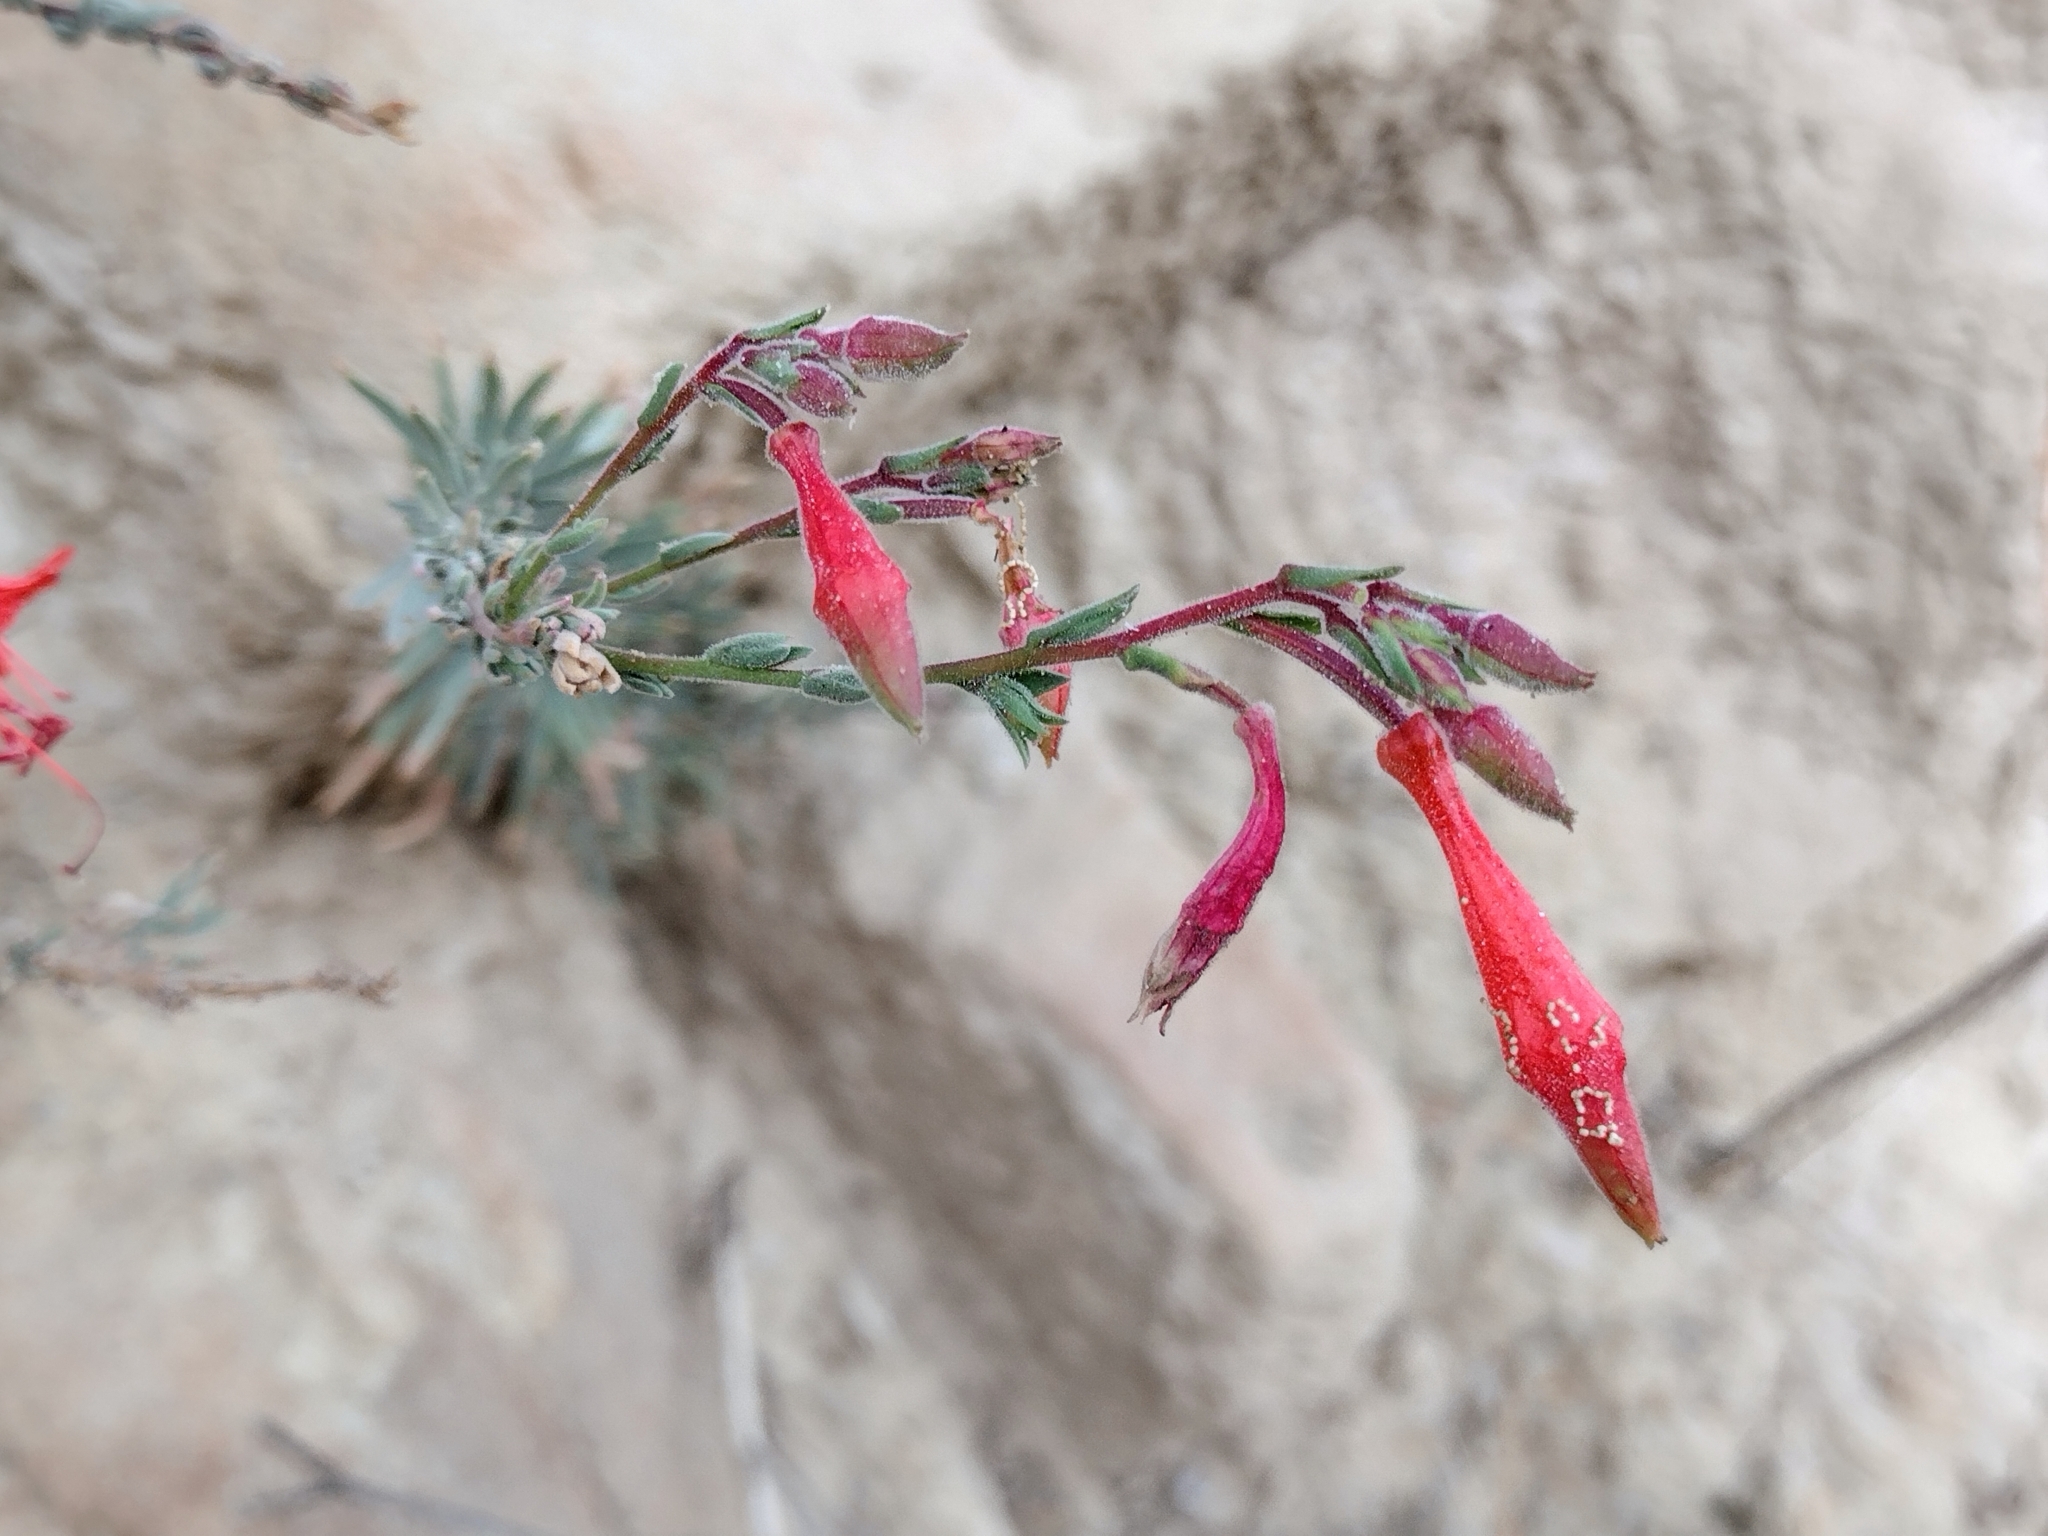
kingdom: Plantae
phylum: Tracheophyta
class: Magnoliopsida
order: Myrtales
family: Onagraceae
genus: Epilobium
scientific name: Epilobium canum
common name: California-fuchsia
